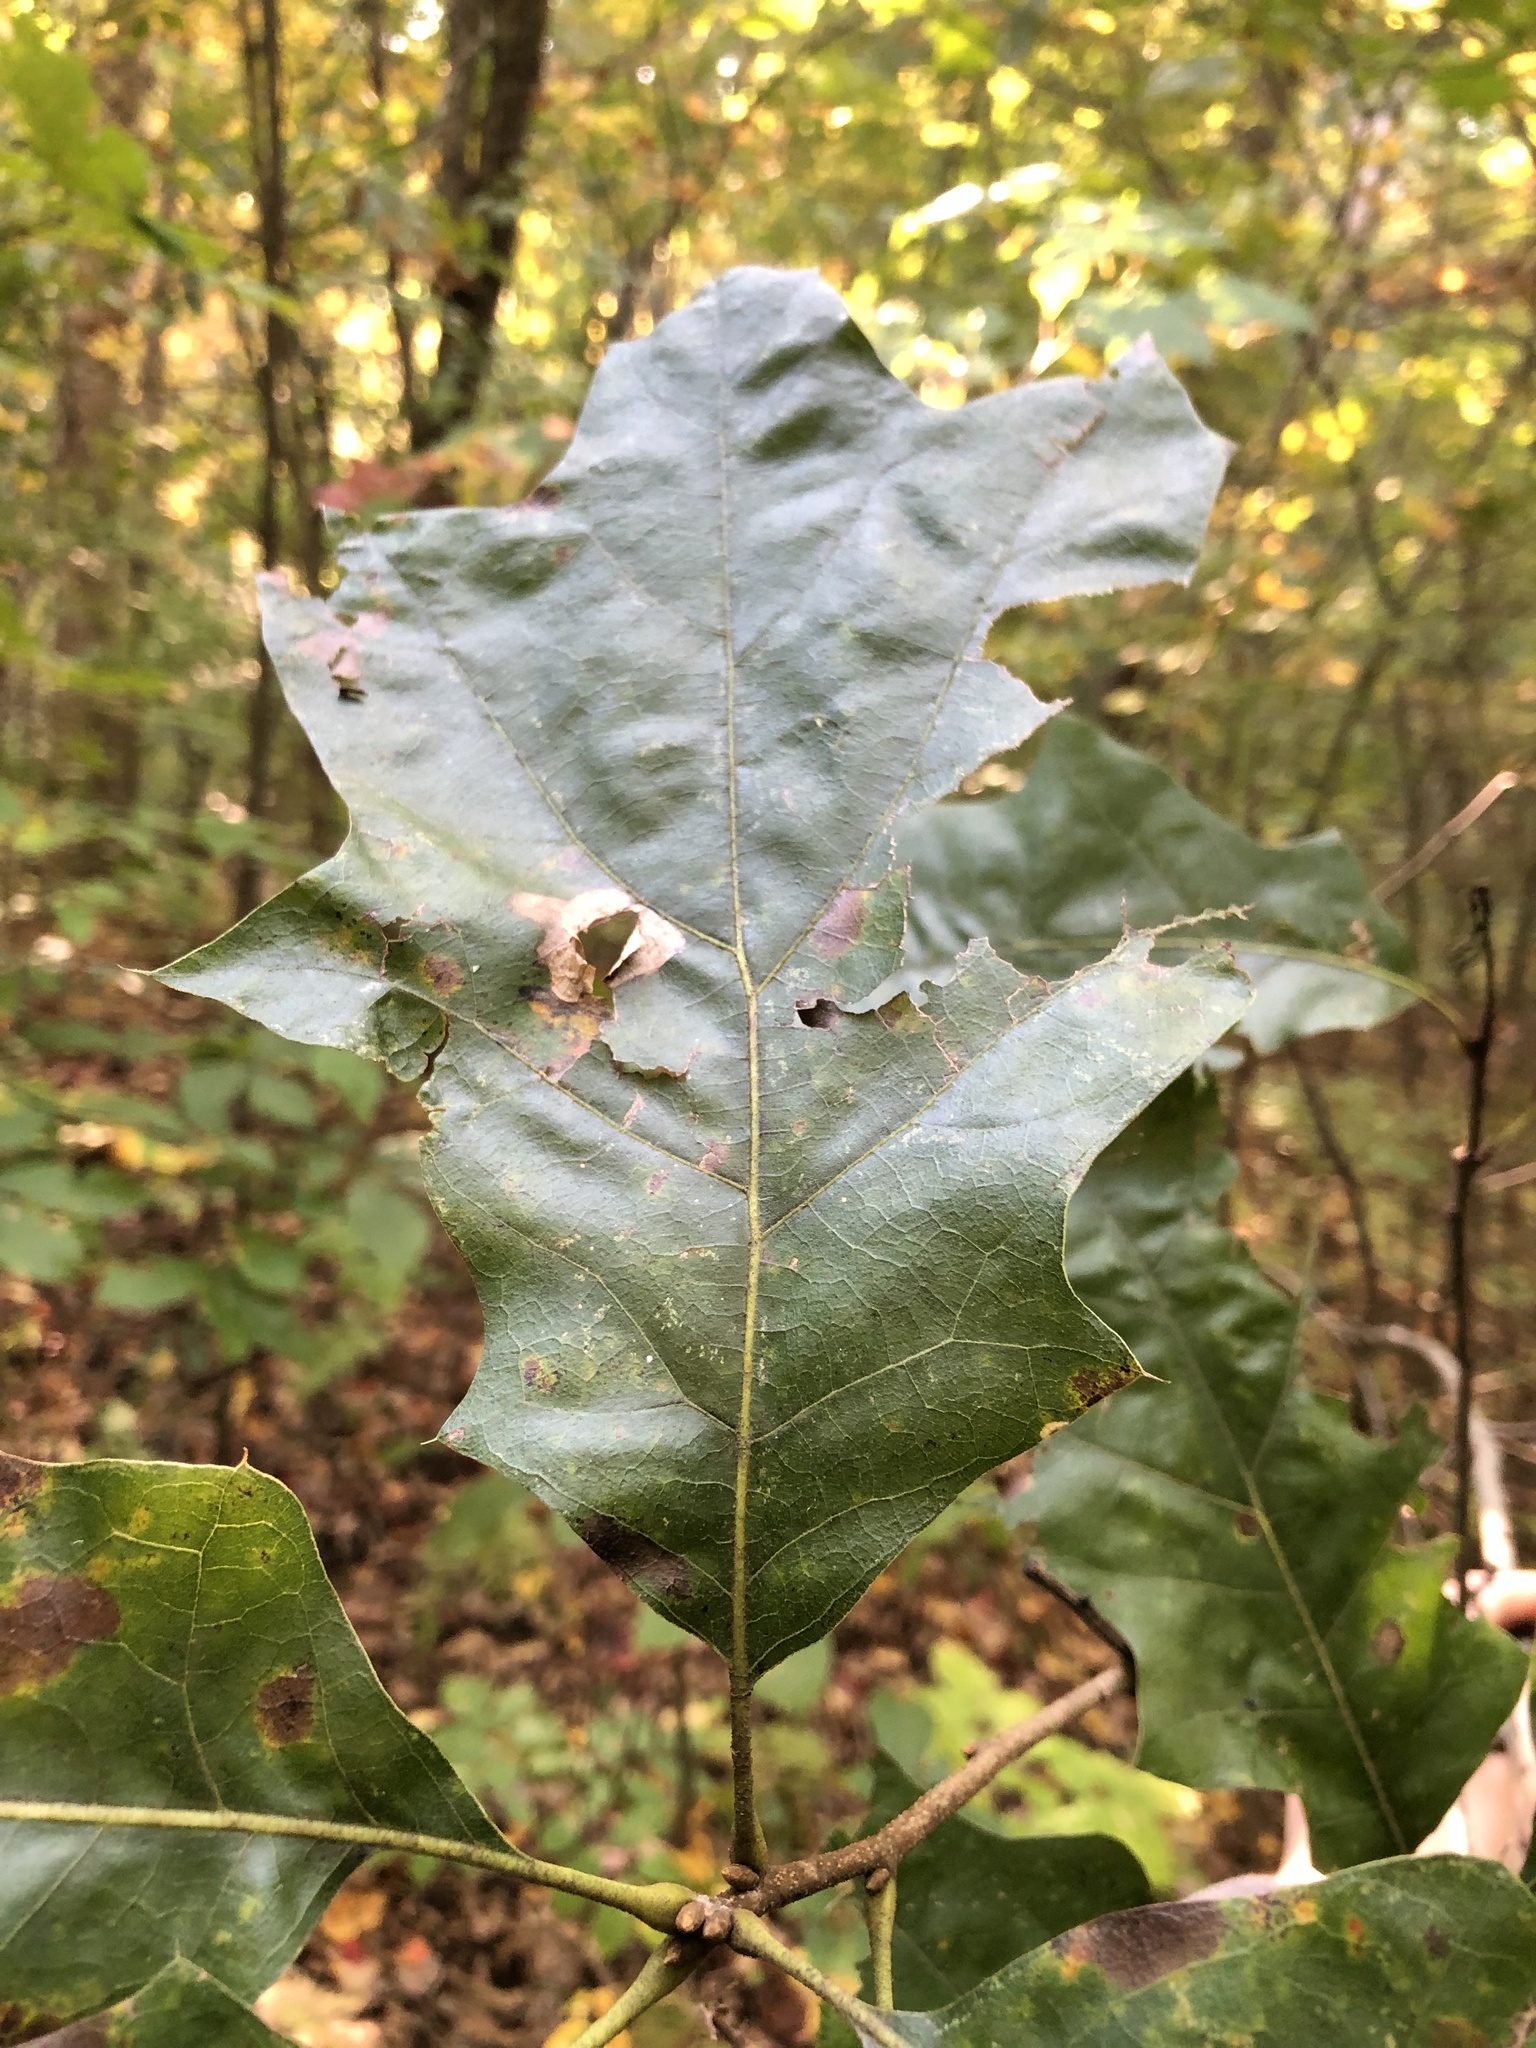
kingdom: Plantae
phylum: Tracheophyta
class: Magnoliopsida
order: Fagales
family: Fagaceae
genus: Quercus
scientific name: Quercus velutina
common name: Black oak
